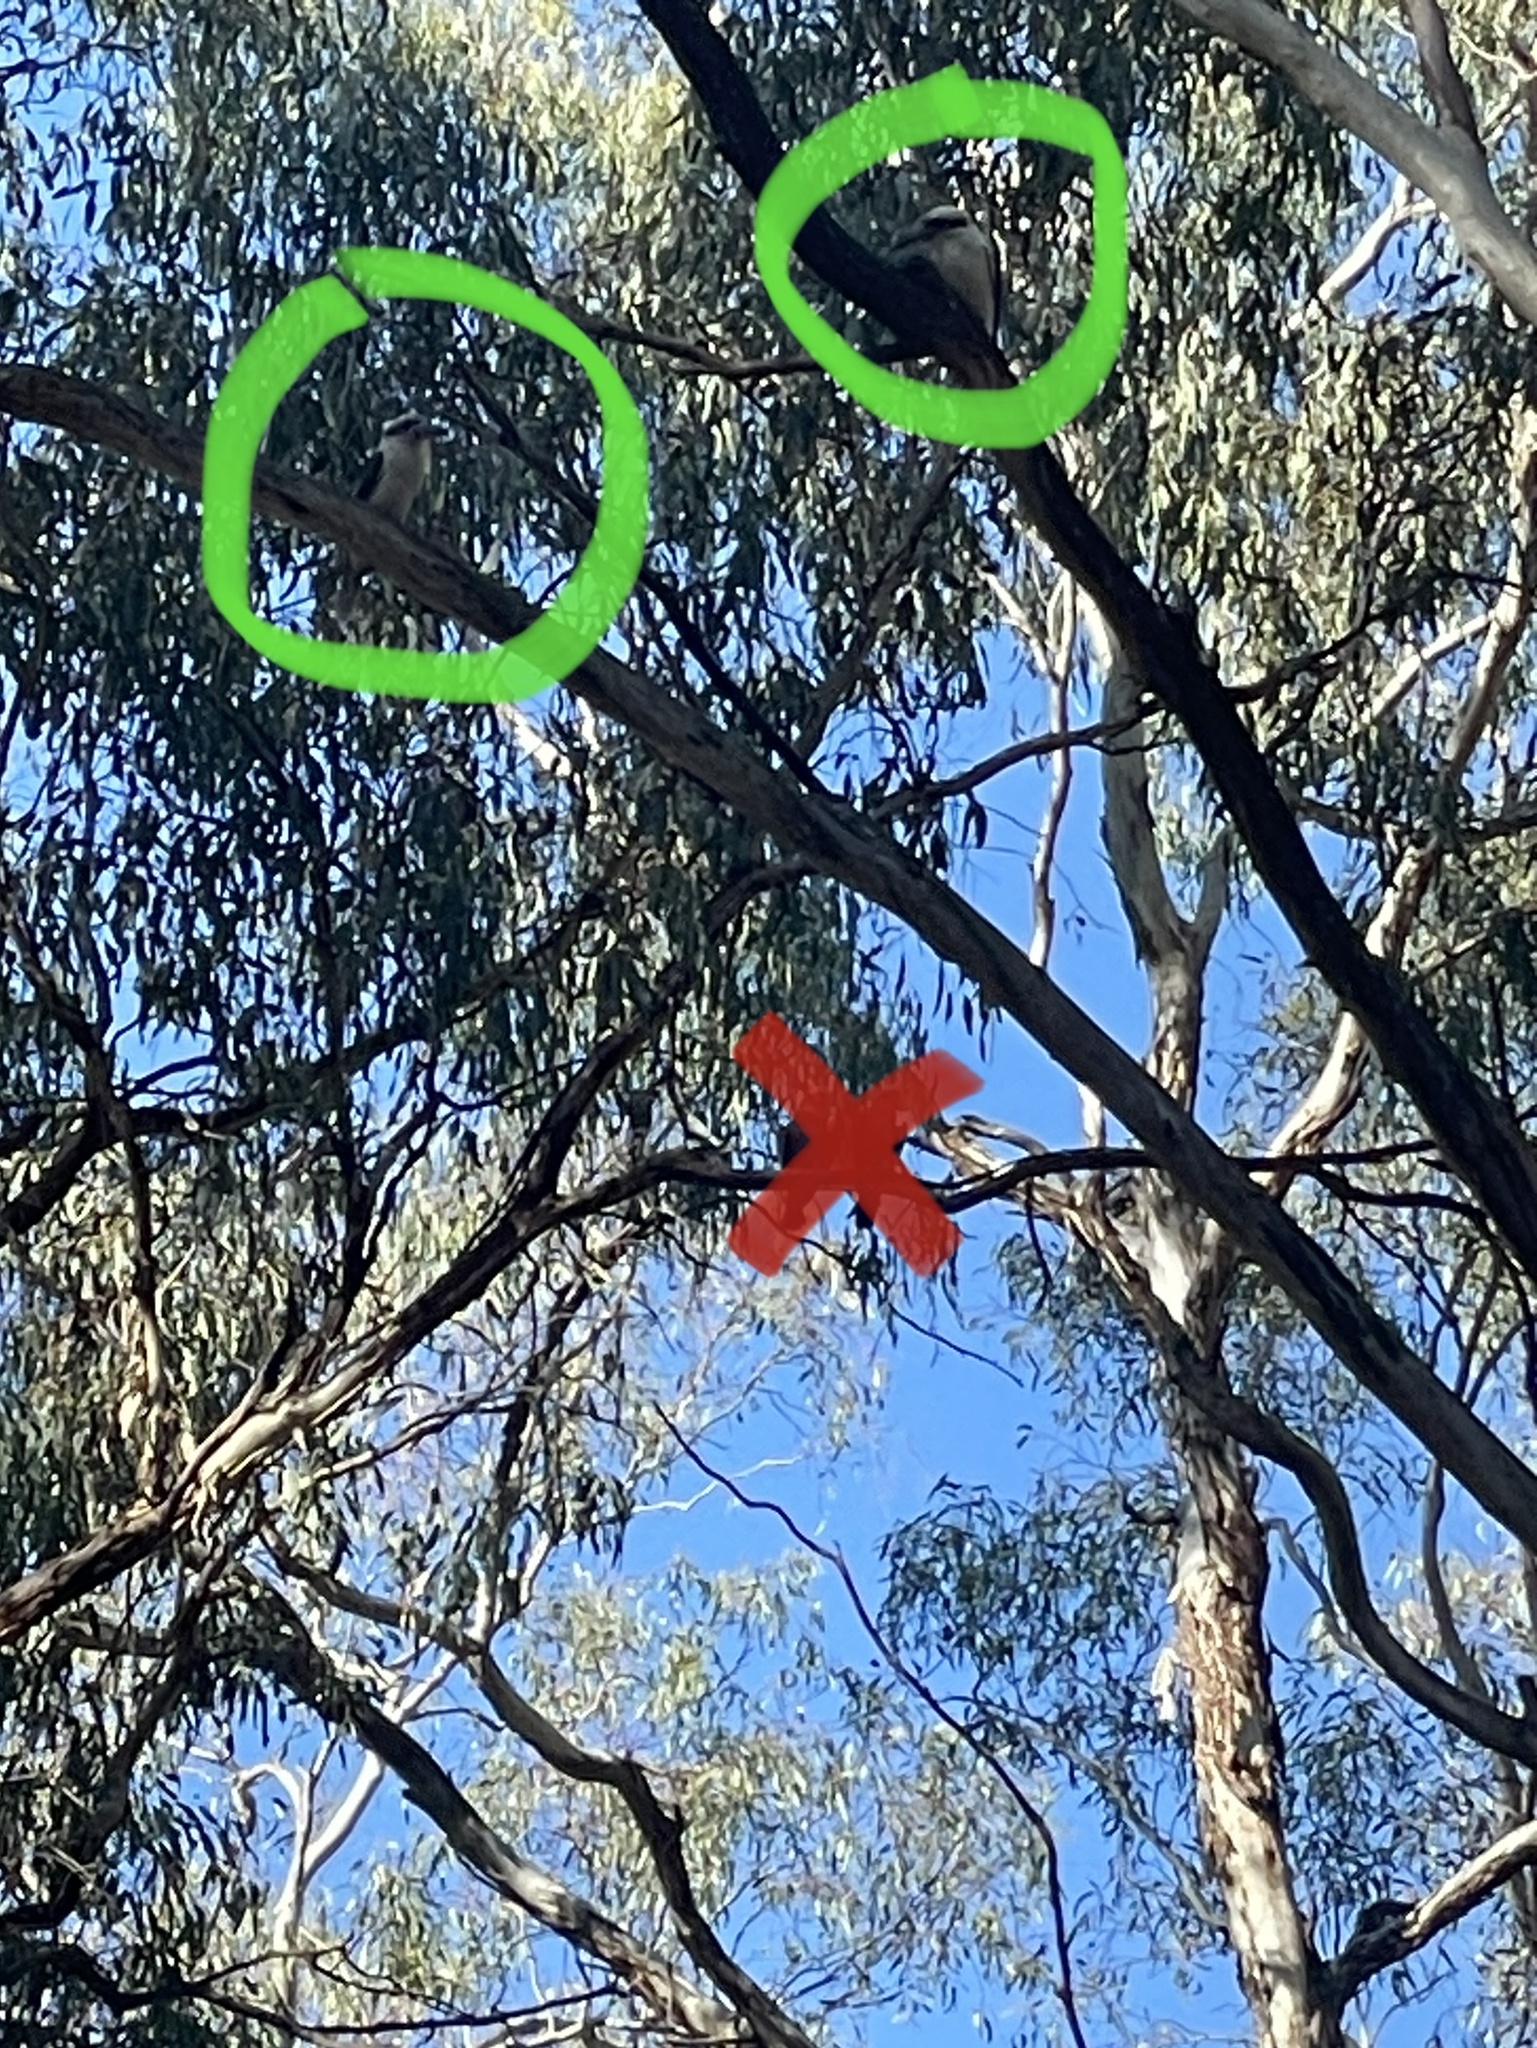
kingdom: Animalia
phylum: Chordata
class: Aves
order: Coraciiformes
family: Alcedinidae
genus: Dacelo
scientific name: Dacelo novaeguineae
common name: Laughing kookaburra
